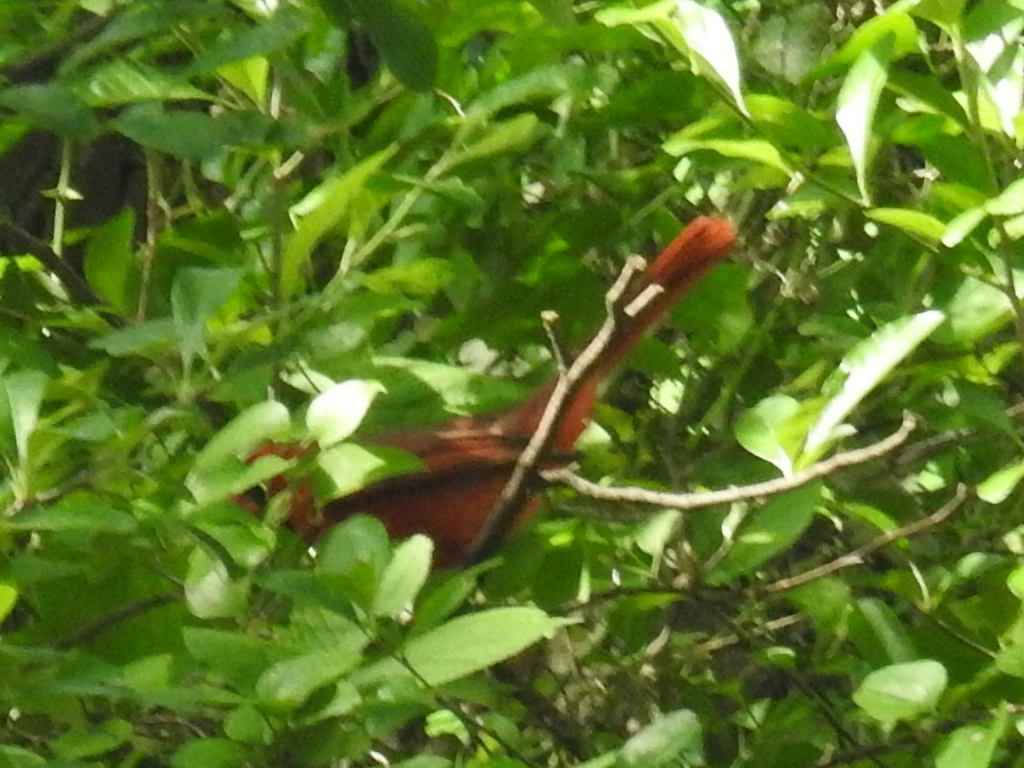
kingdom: Animalia
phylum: Chordata
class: Aves
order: Passeriformes
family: Cardinalidae
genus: Cardinalis
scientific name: Cardinalis cardinalis
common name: Northern cardinal
